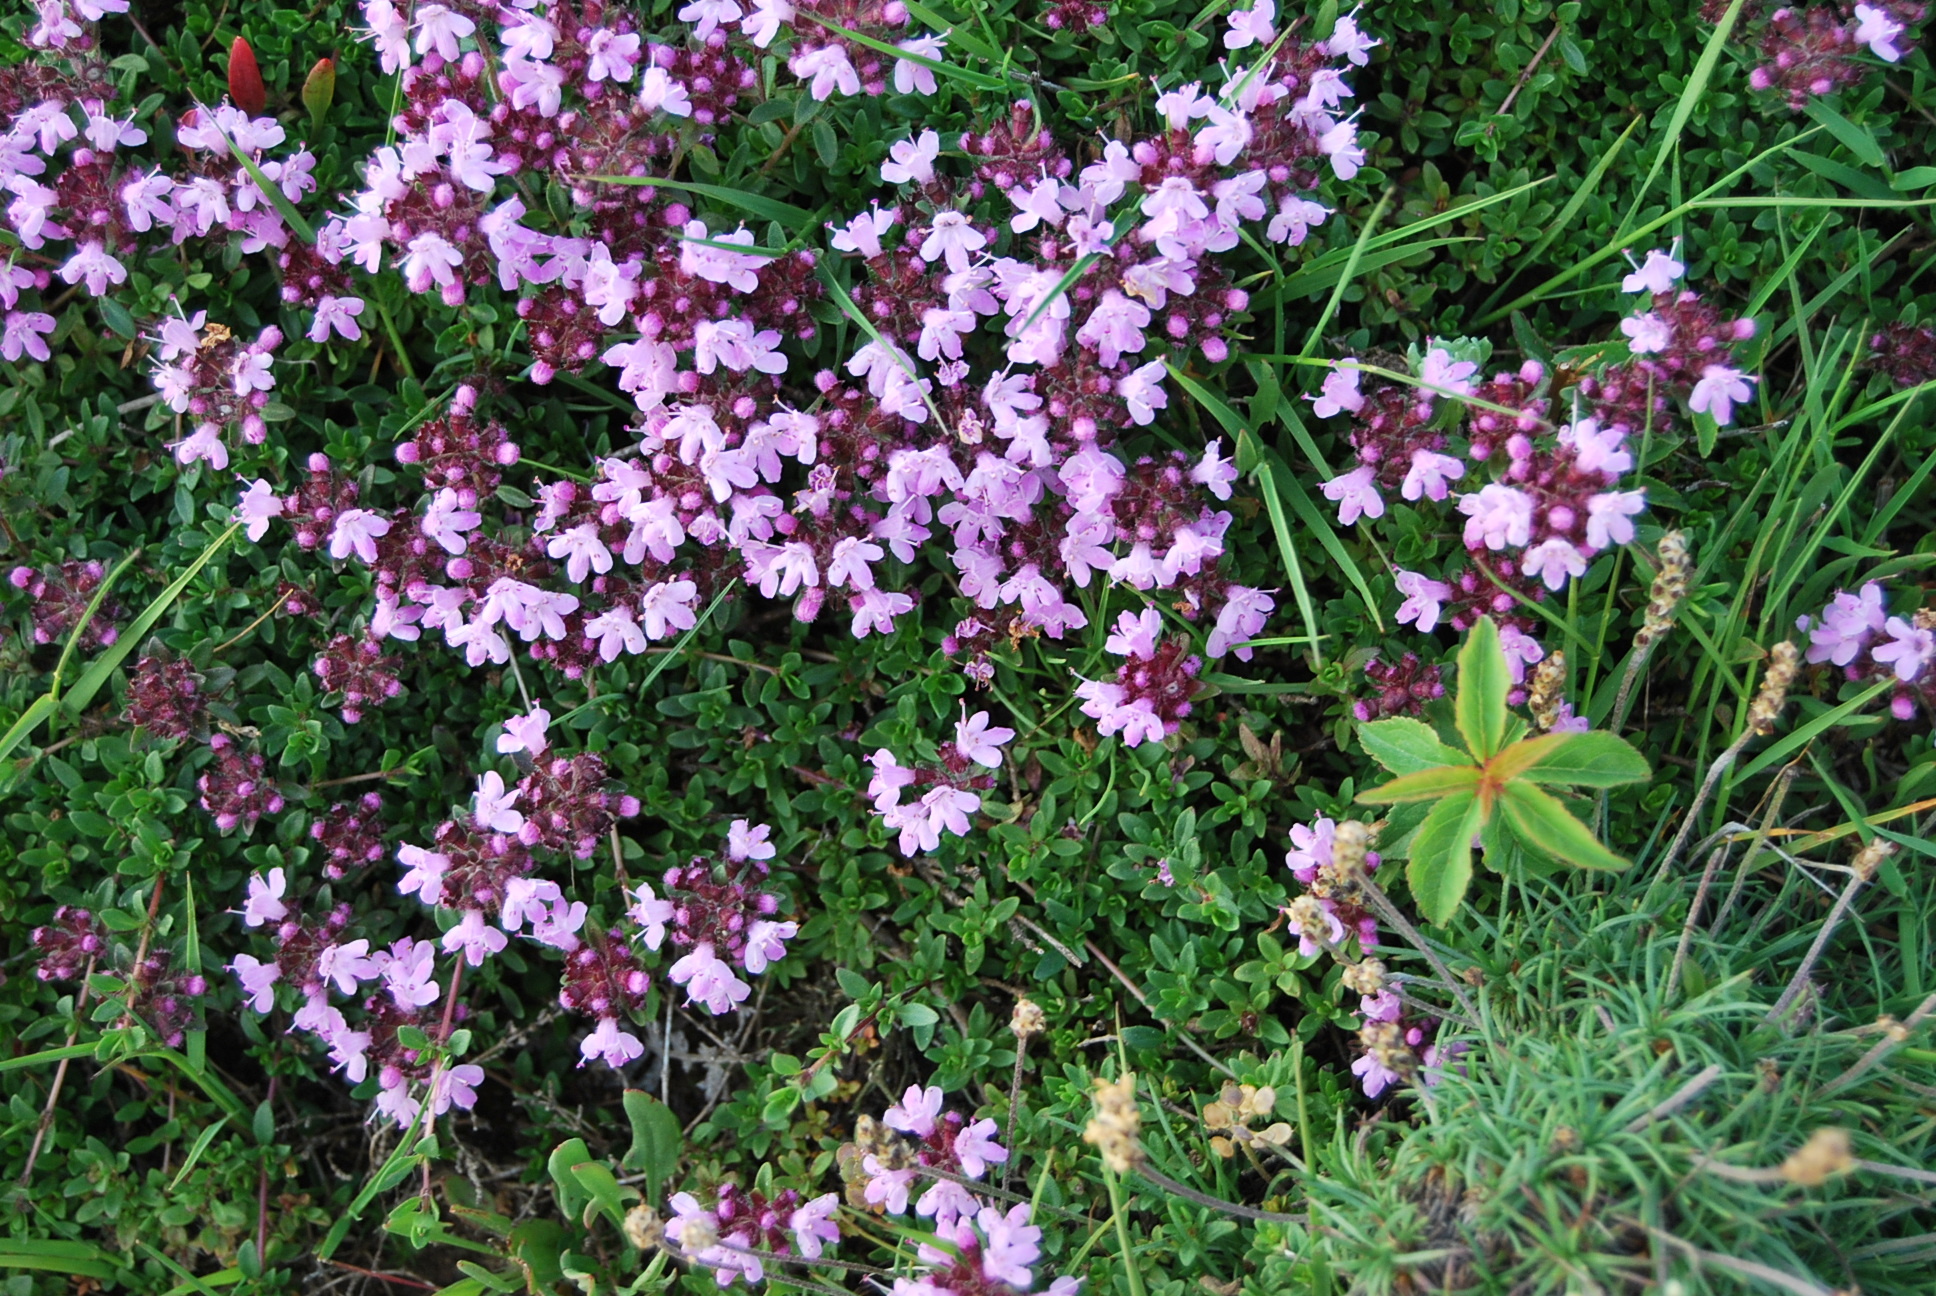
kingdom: Plantae
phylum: Tracheophyta
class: Magnoliopsida
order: Lamiales
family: Lamiaceae
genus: Thymus
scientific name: Thymus pulegioides
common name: Large thyme
